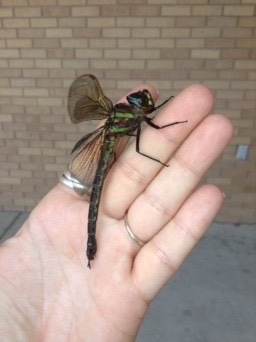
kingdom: Animalia
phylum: Arthropoda
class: Insecta
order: Odonata
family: Aeshnidae
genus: Epiaeschna
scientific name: Epiaeschna heros
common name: Swamp darner
